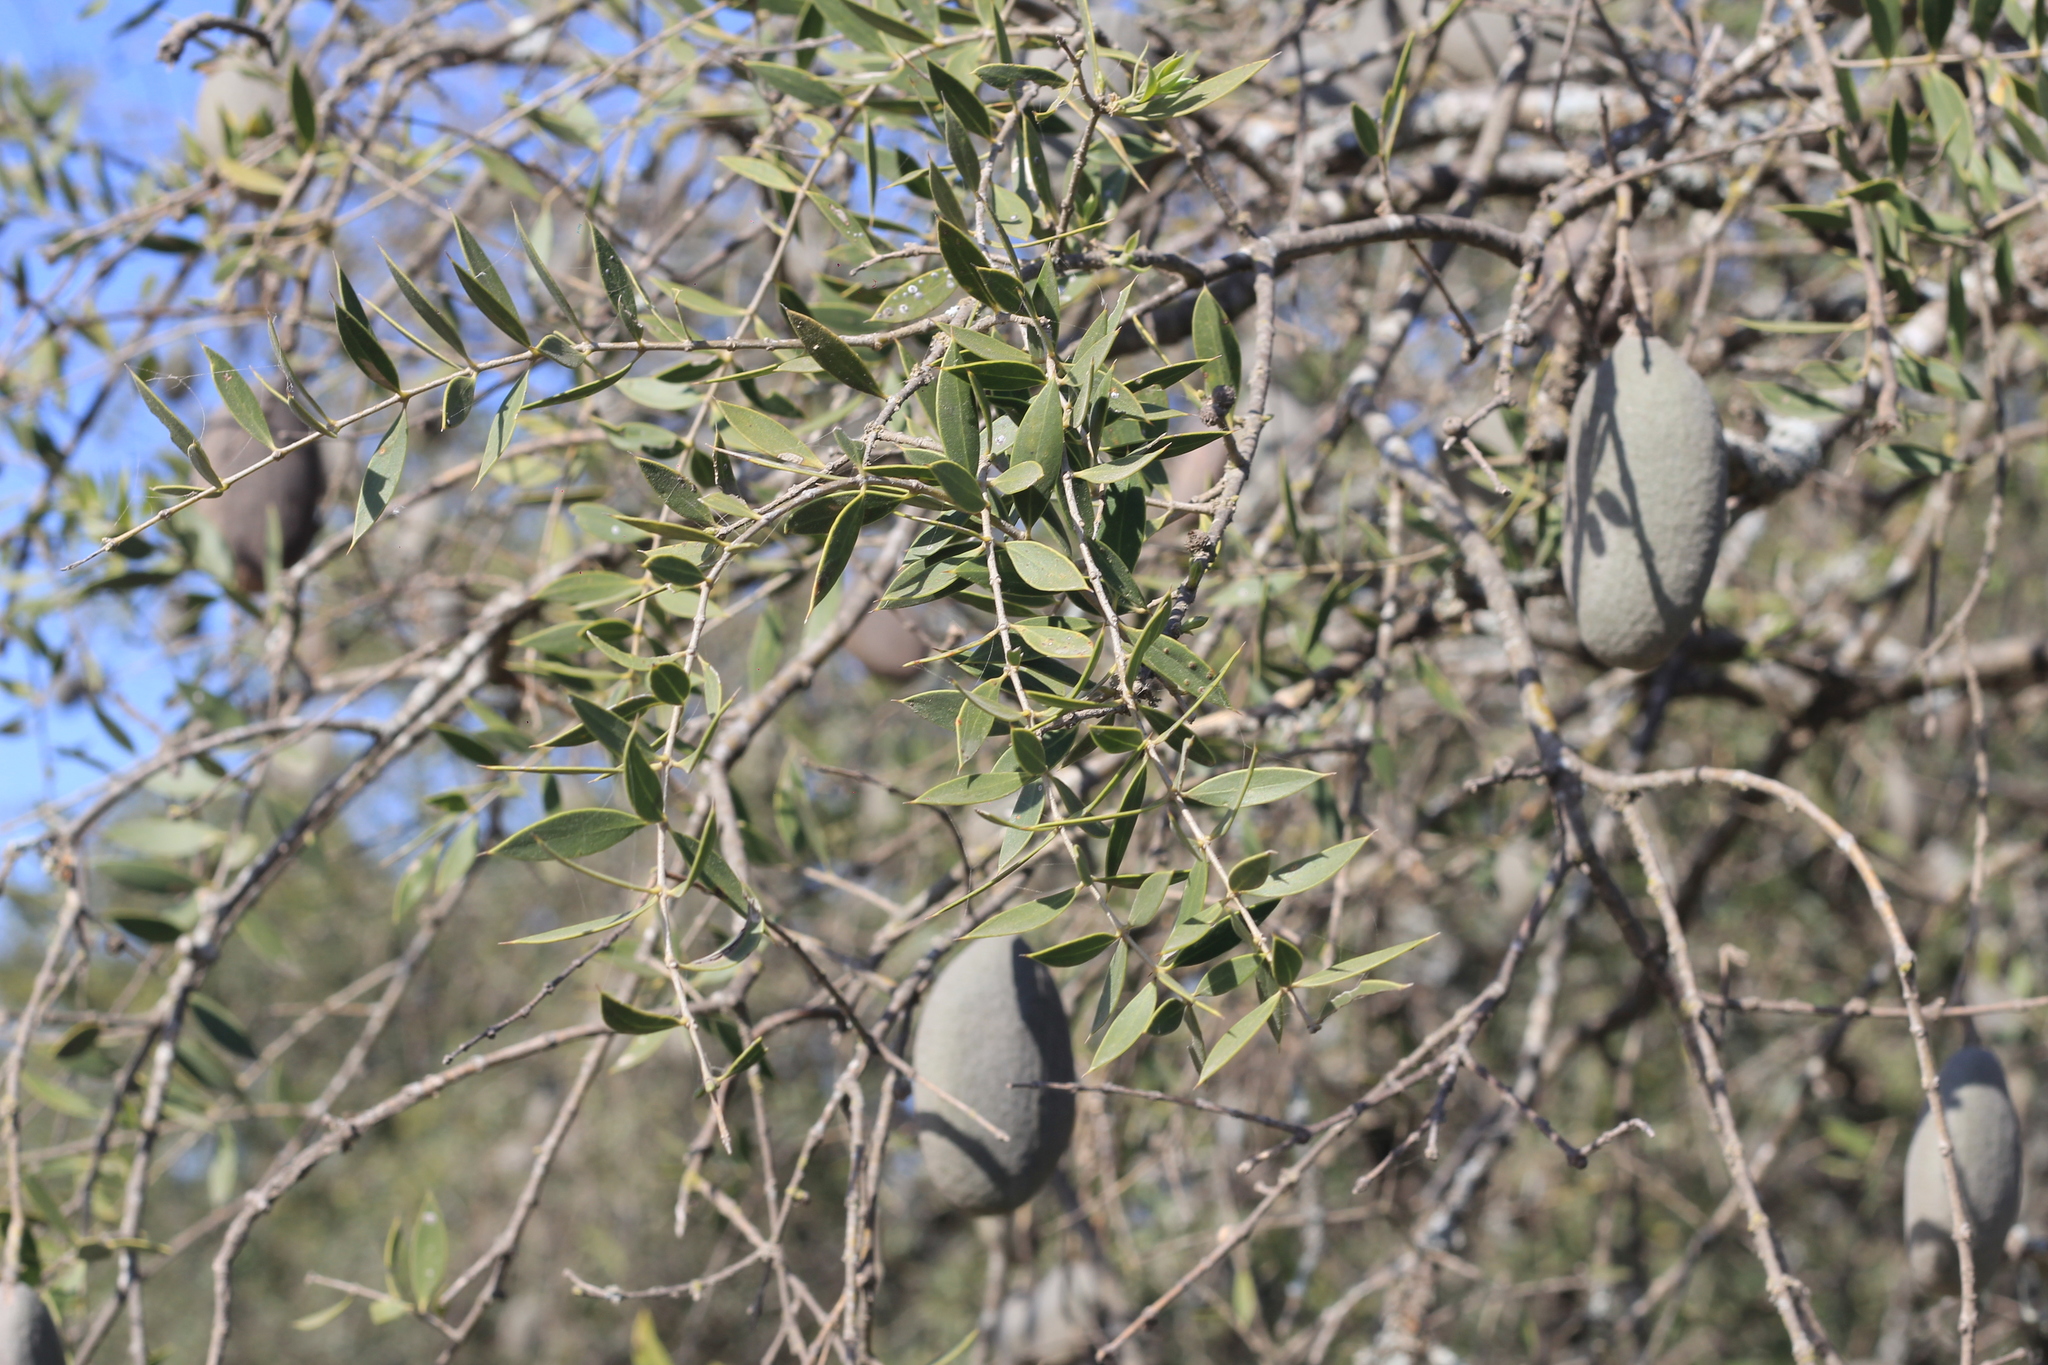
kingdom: Plantae
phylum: Tracheophyta
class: Magnoliopsida
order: Gentianales
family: Apocynaceae
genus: Aspidosperma
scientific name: Aspidosperma quebracho-blanco
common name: White quebracho
